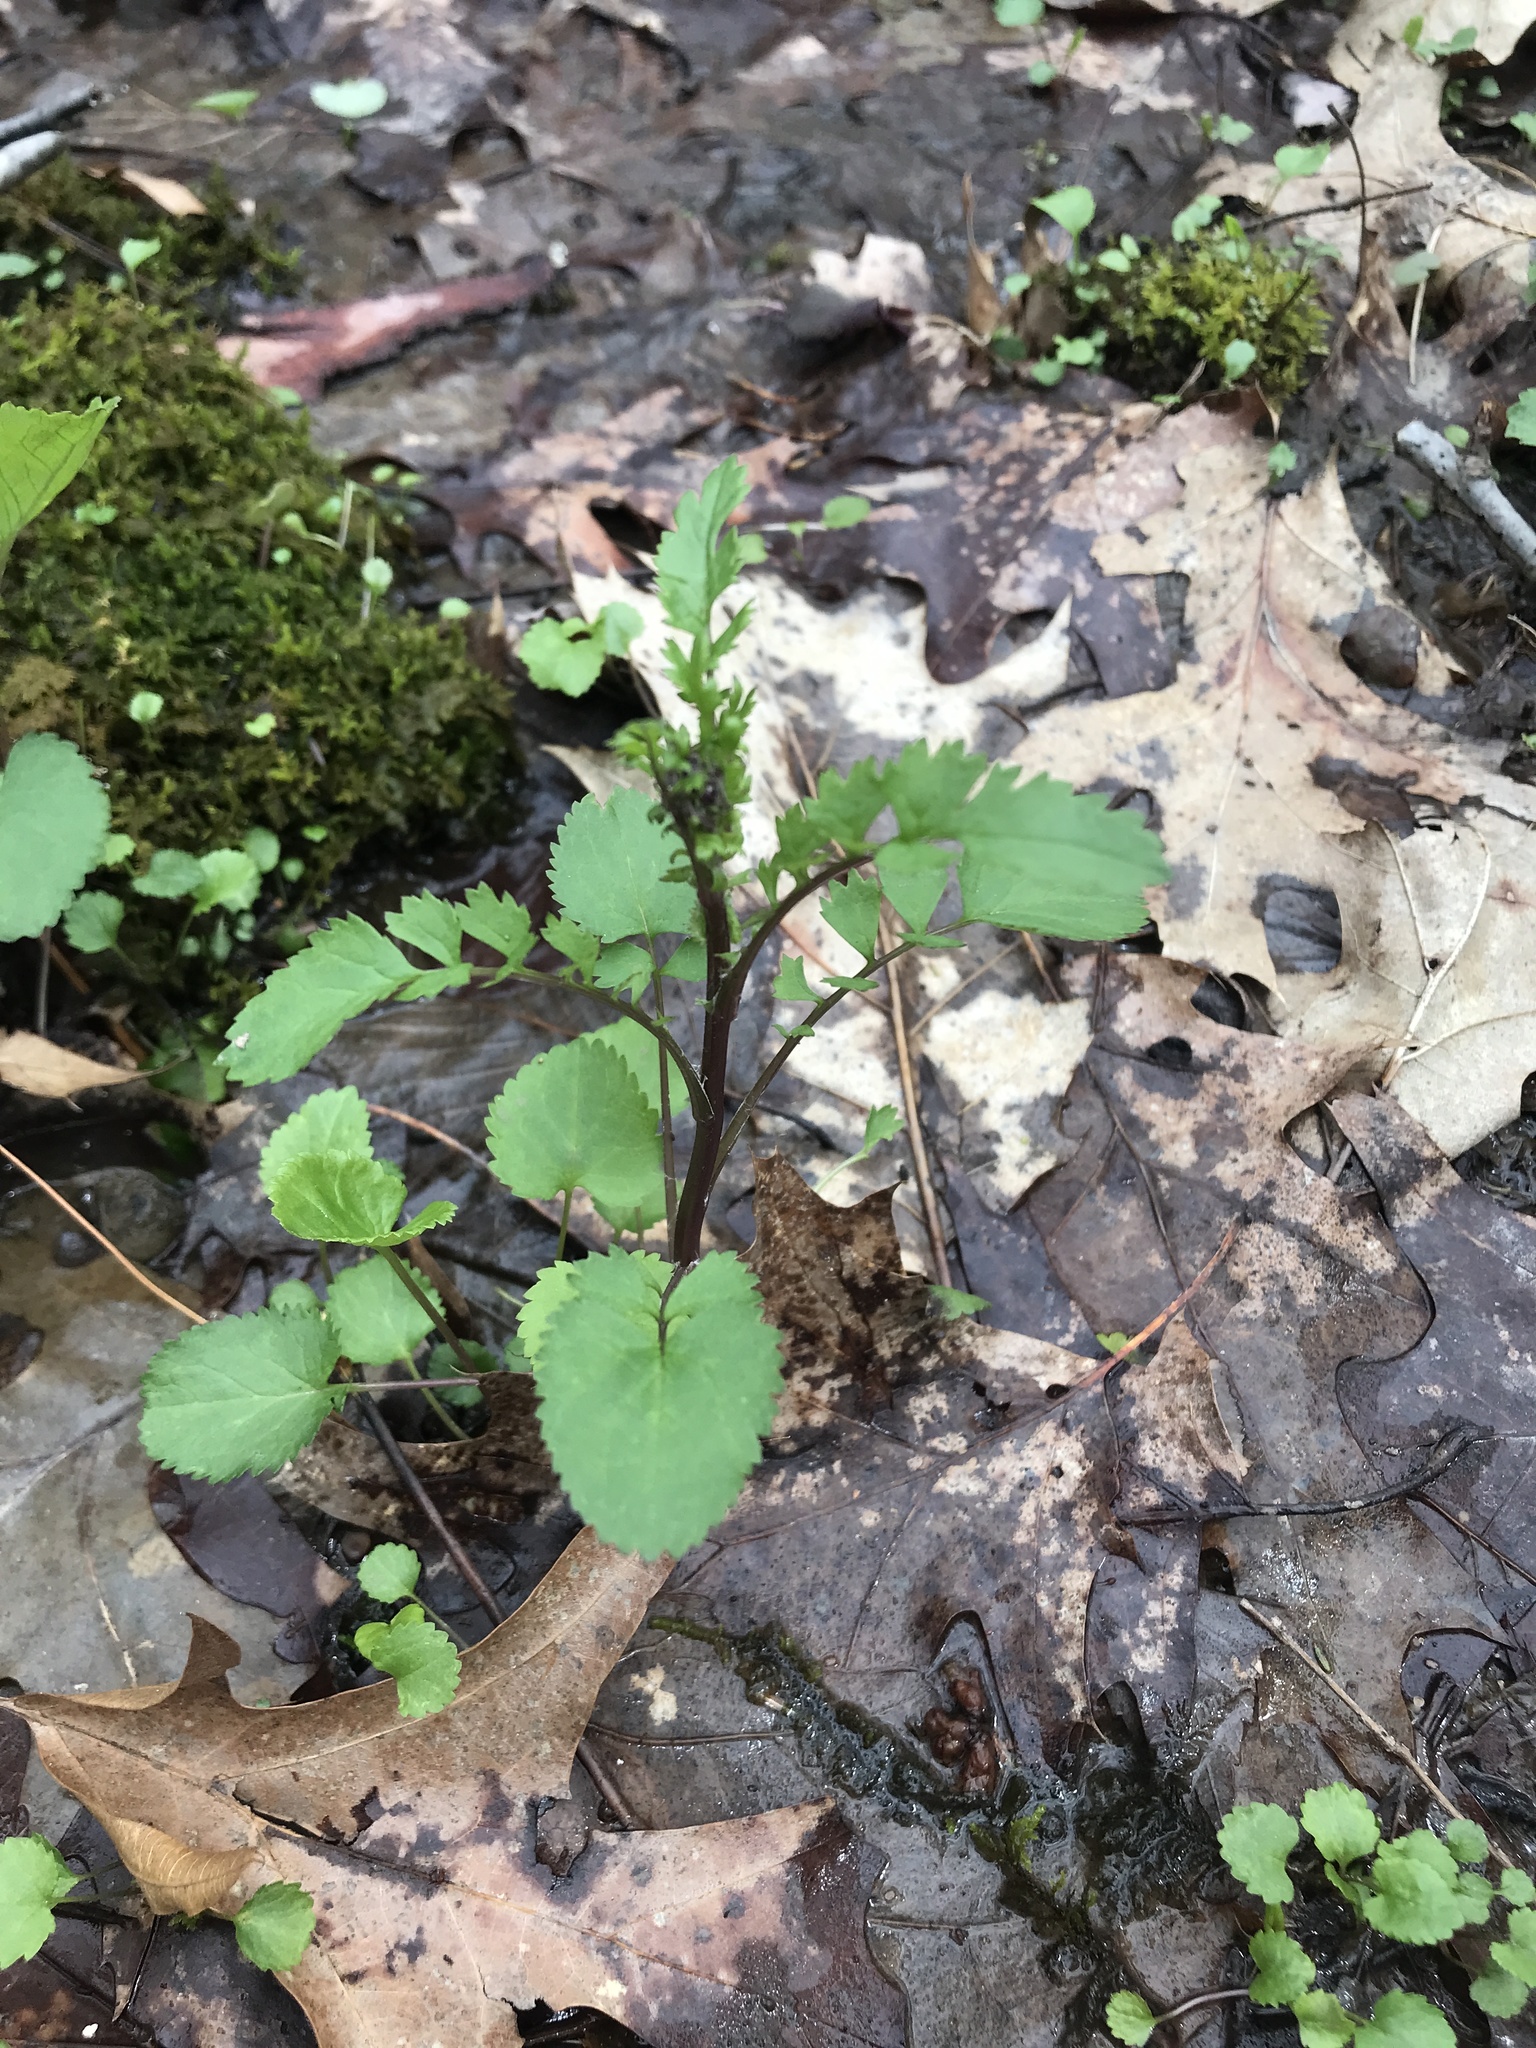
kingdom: Plantae
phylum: Tracheophyta
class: Magnoliopsida
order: Asterales
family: Asteraceae
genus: Packera
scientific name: Packera aurea
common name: Golden groundsel
